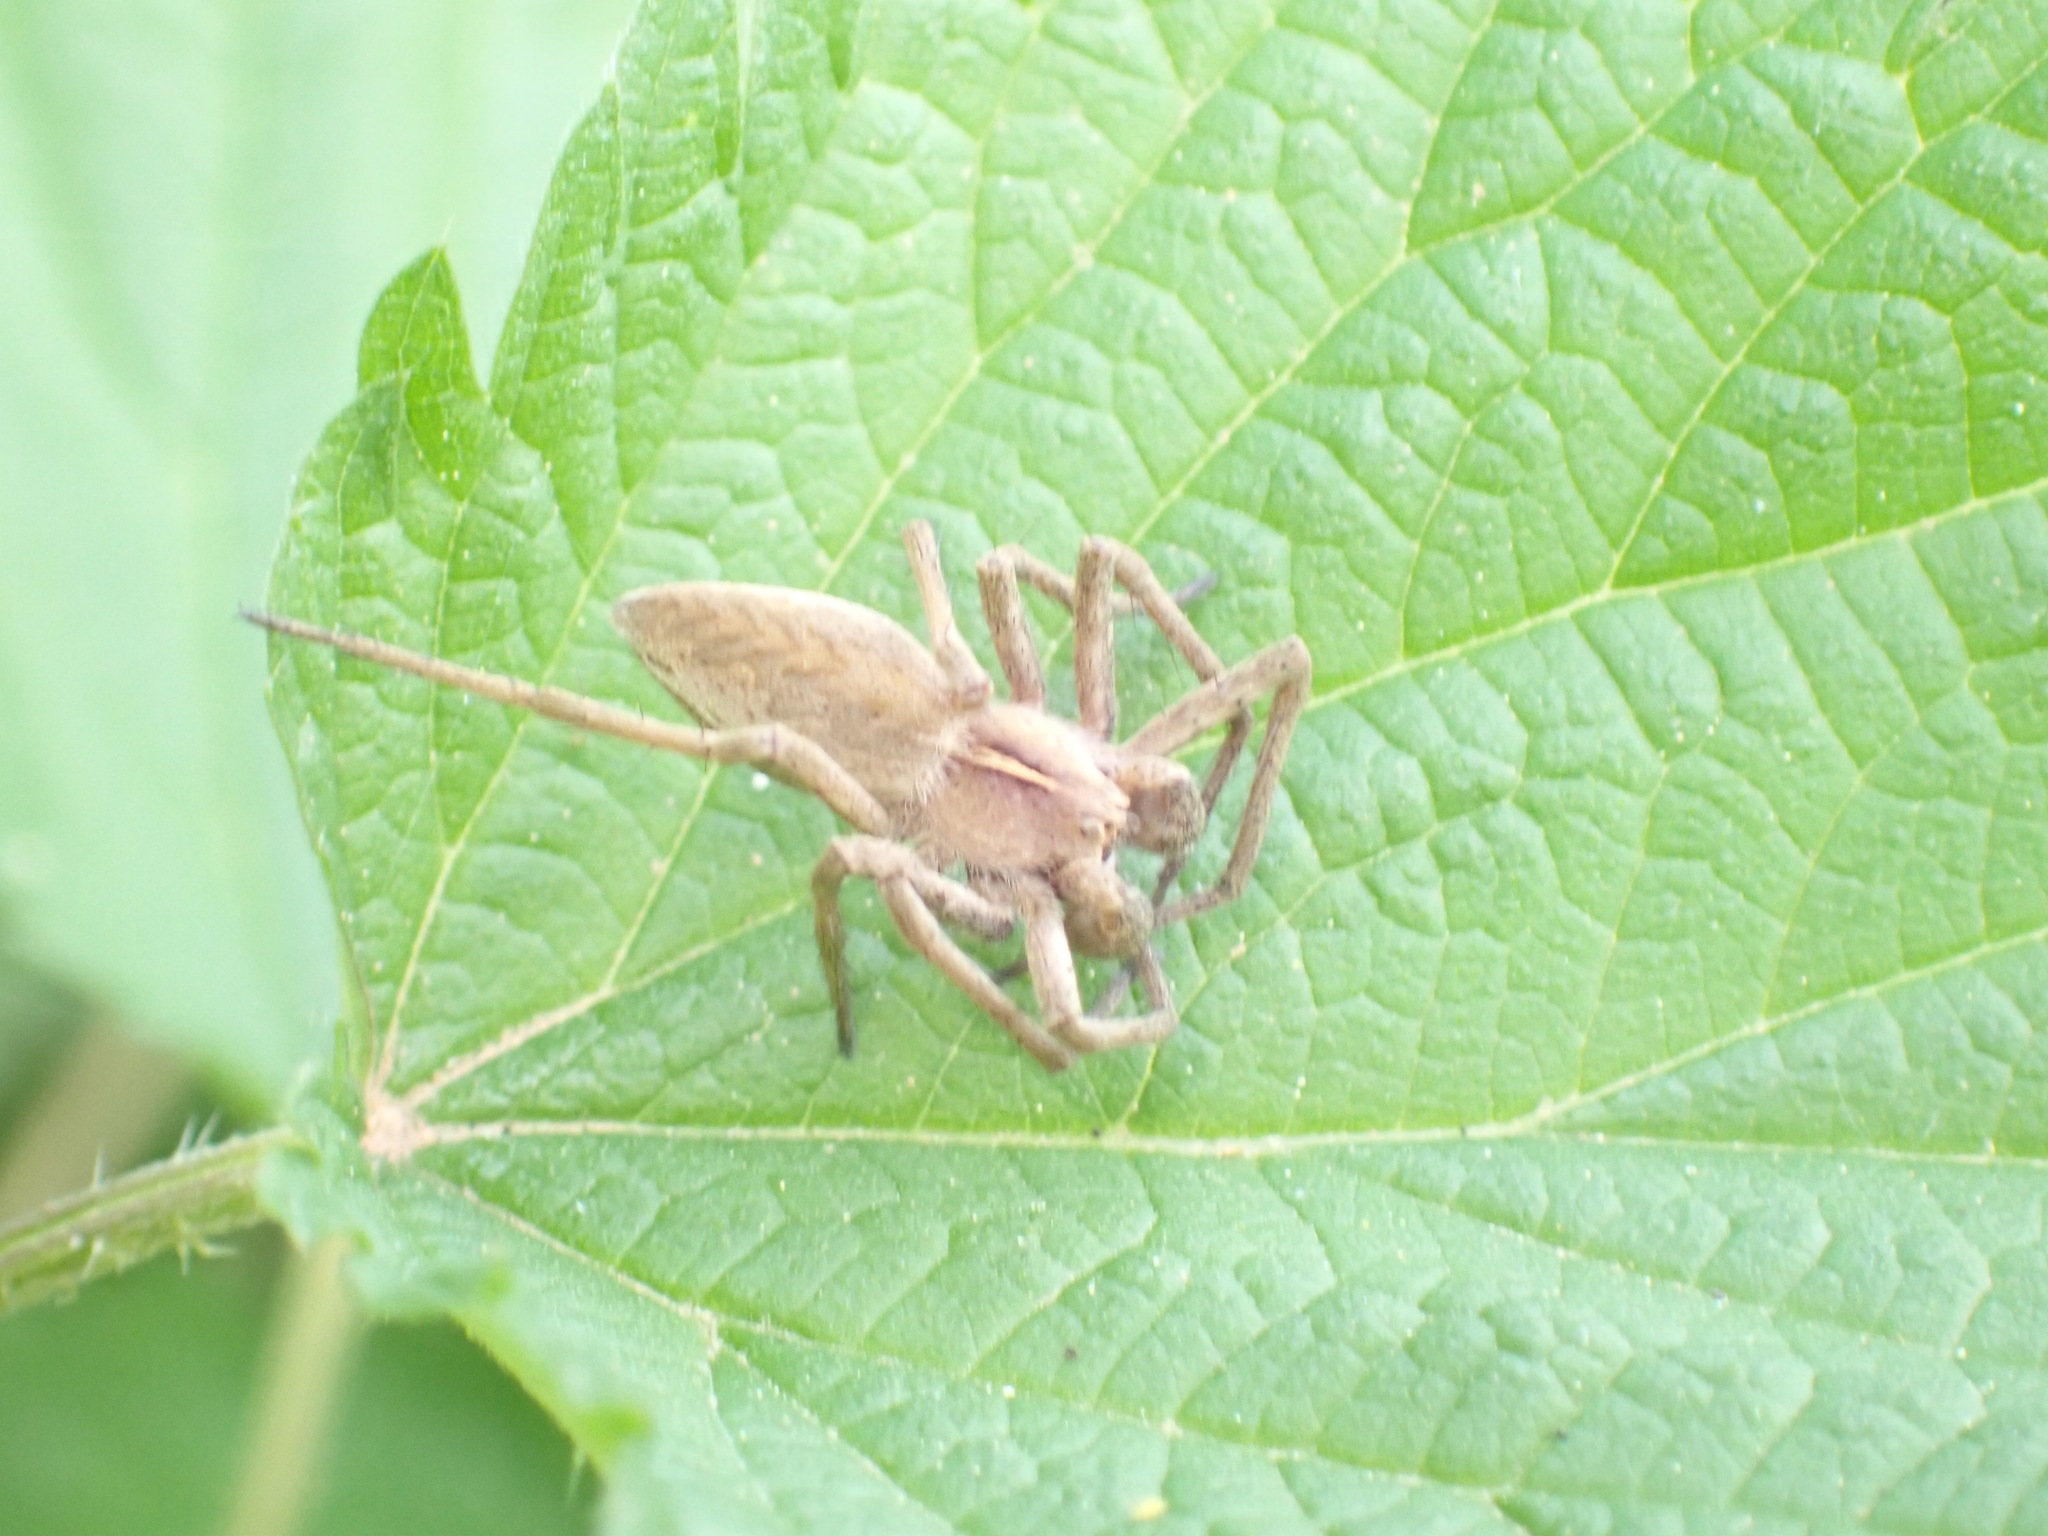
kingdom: Animalia
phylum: Arthropoda
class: Arachnida
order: Araneae
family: Pisauridae
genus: Pisaura
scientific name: Pisaura mirabilis
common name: Tent spider
